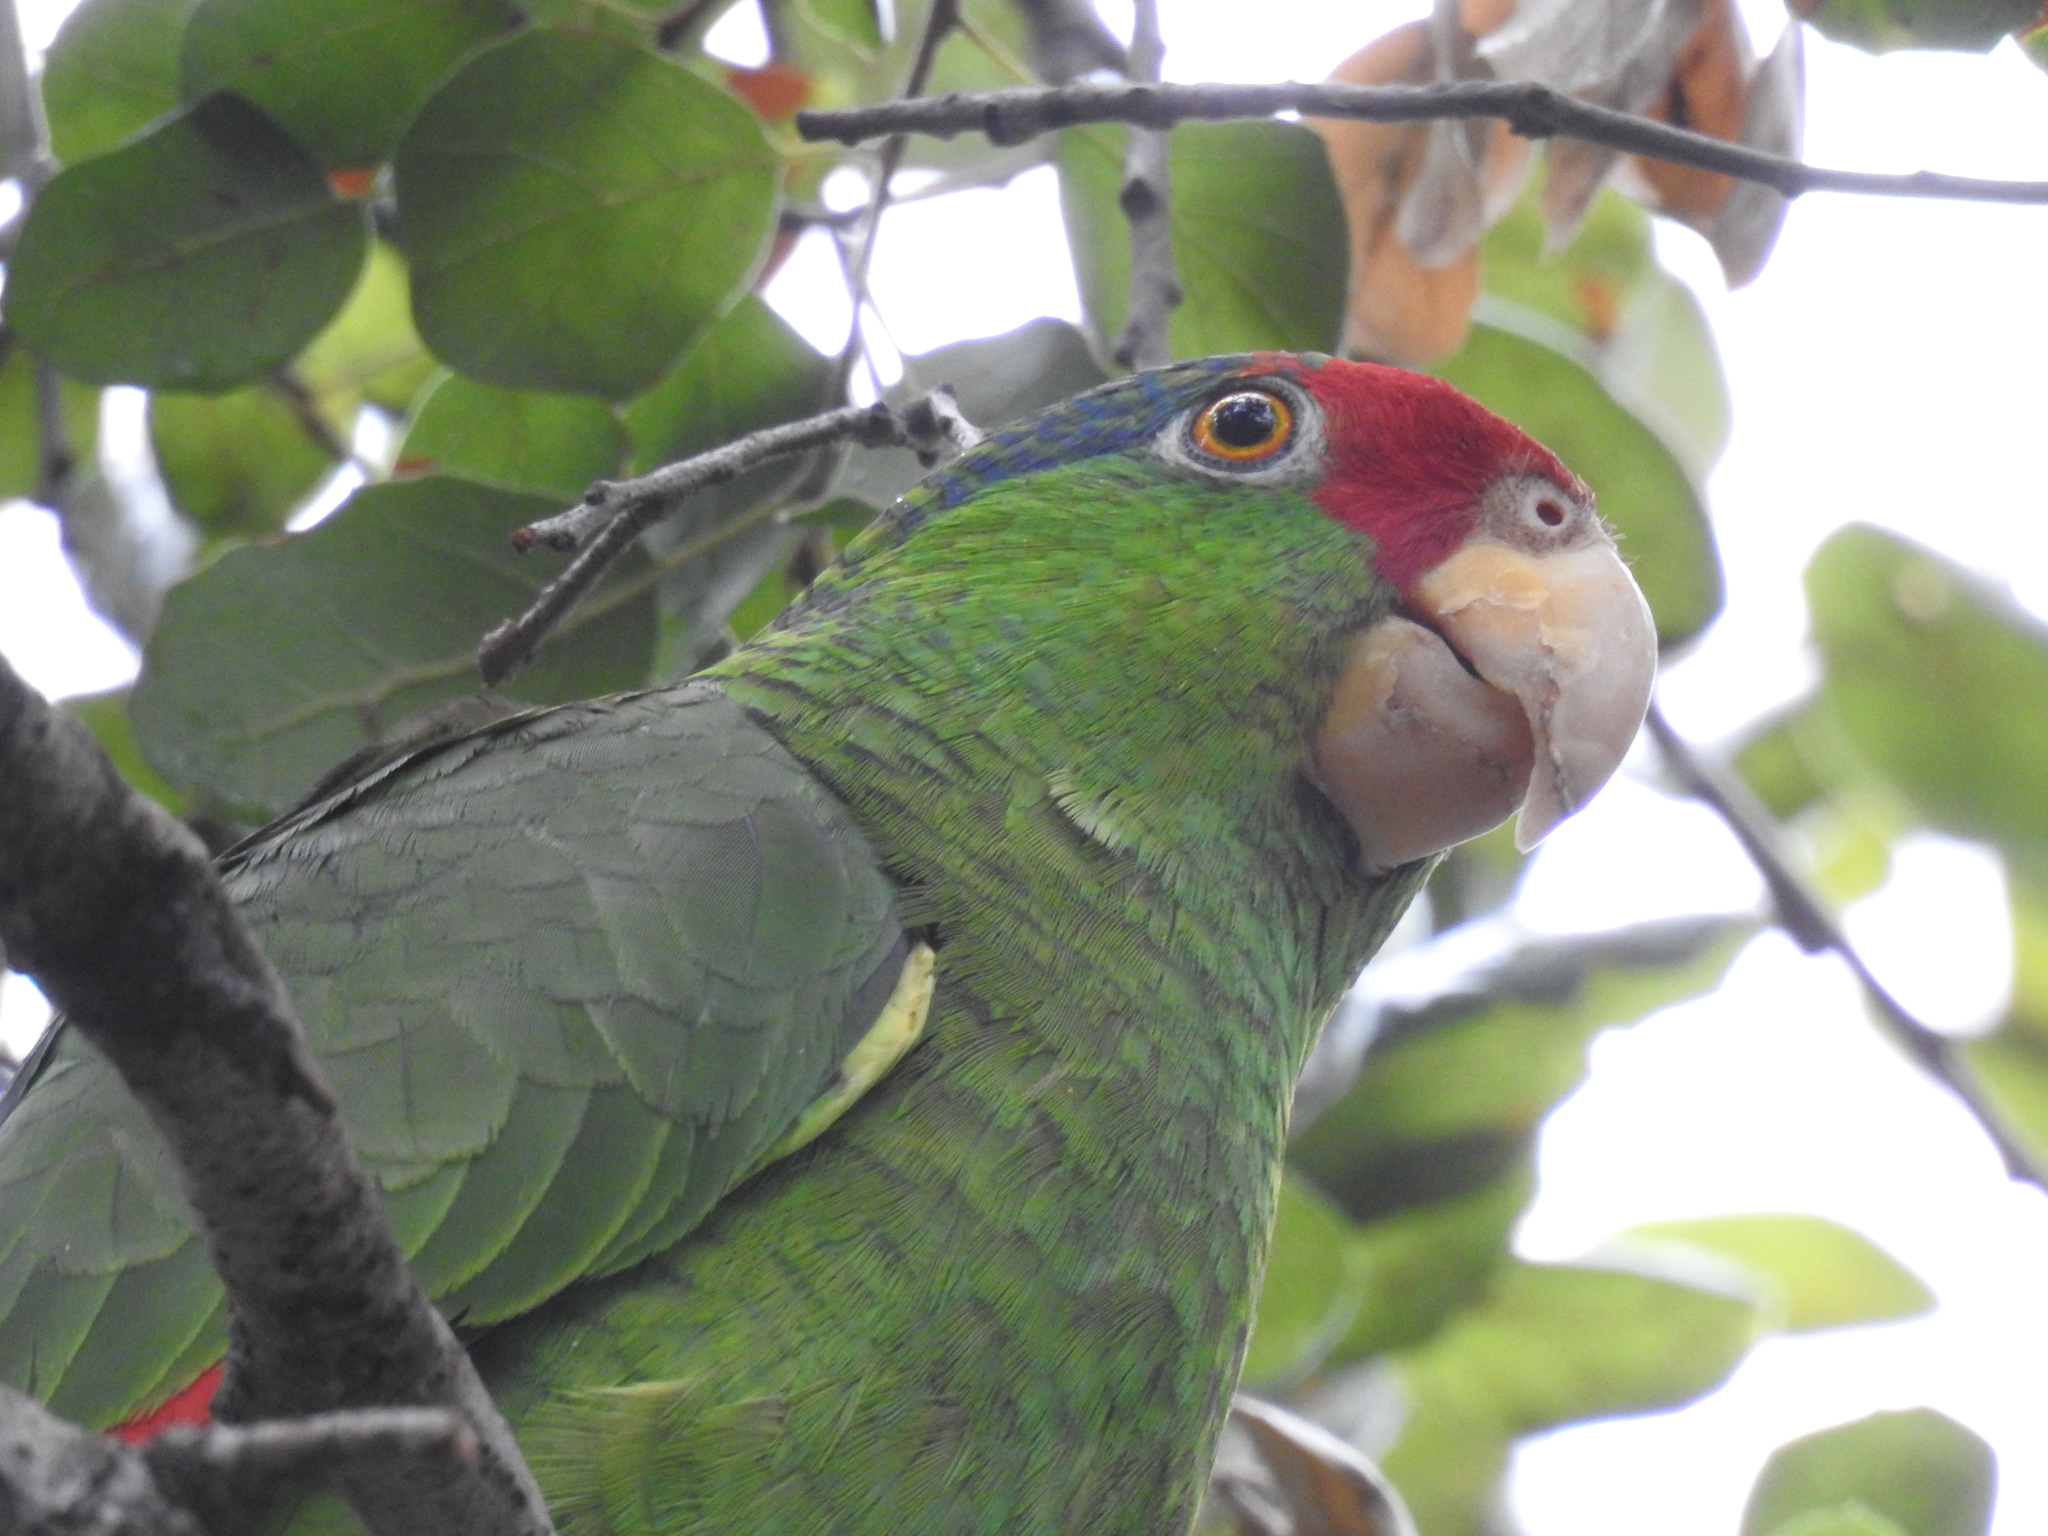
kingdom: Animalia
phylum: Chordata
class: Aves
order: Psittaciformes
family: Psittacidae
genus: Amazona
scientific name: Amazona viridigenalis
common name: Red-crowned amazon
